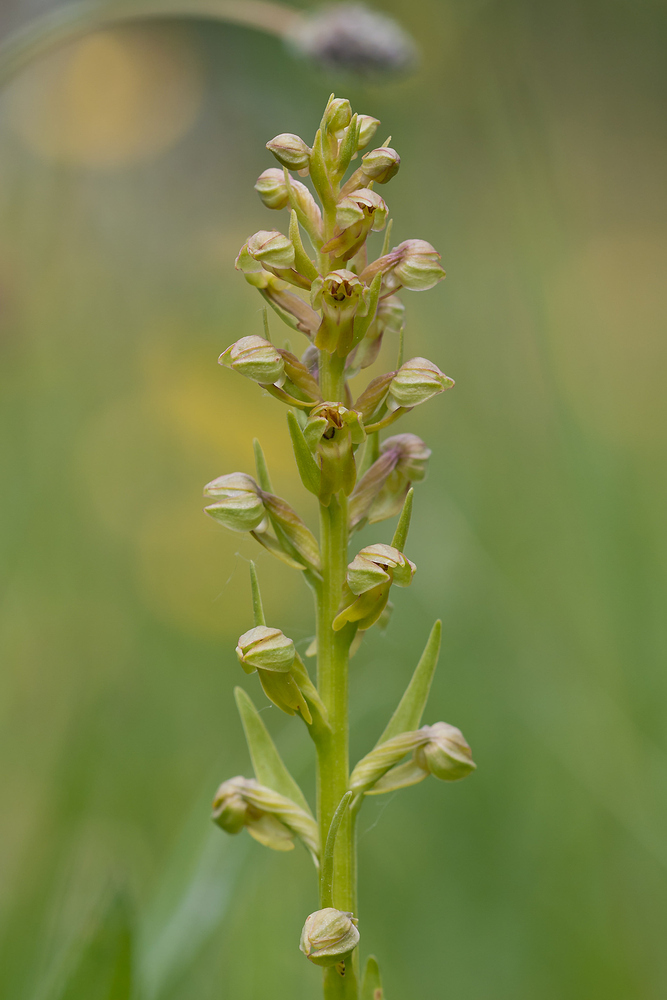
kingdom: Plantae
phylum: Tracheophyta
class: Liliopsida
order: Asparagales
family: Orchidaceae
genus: Dactylorhiza
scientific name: Dactylorhiza viridis
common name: Longbract frog orchid
